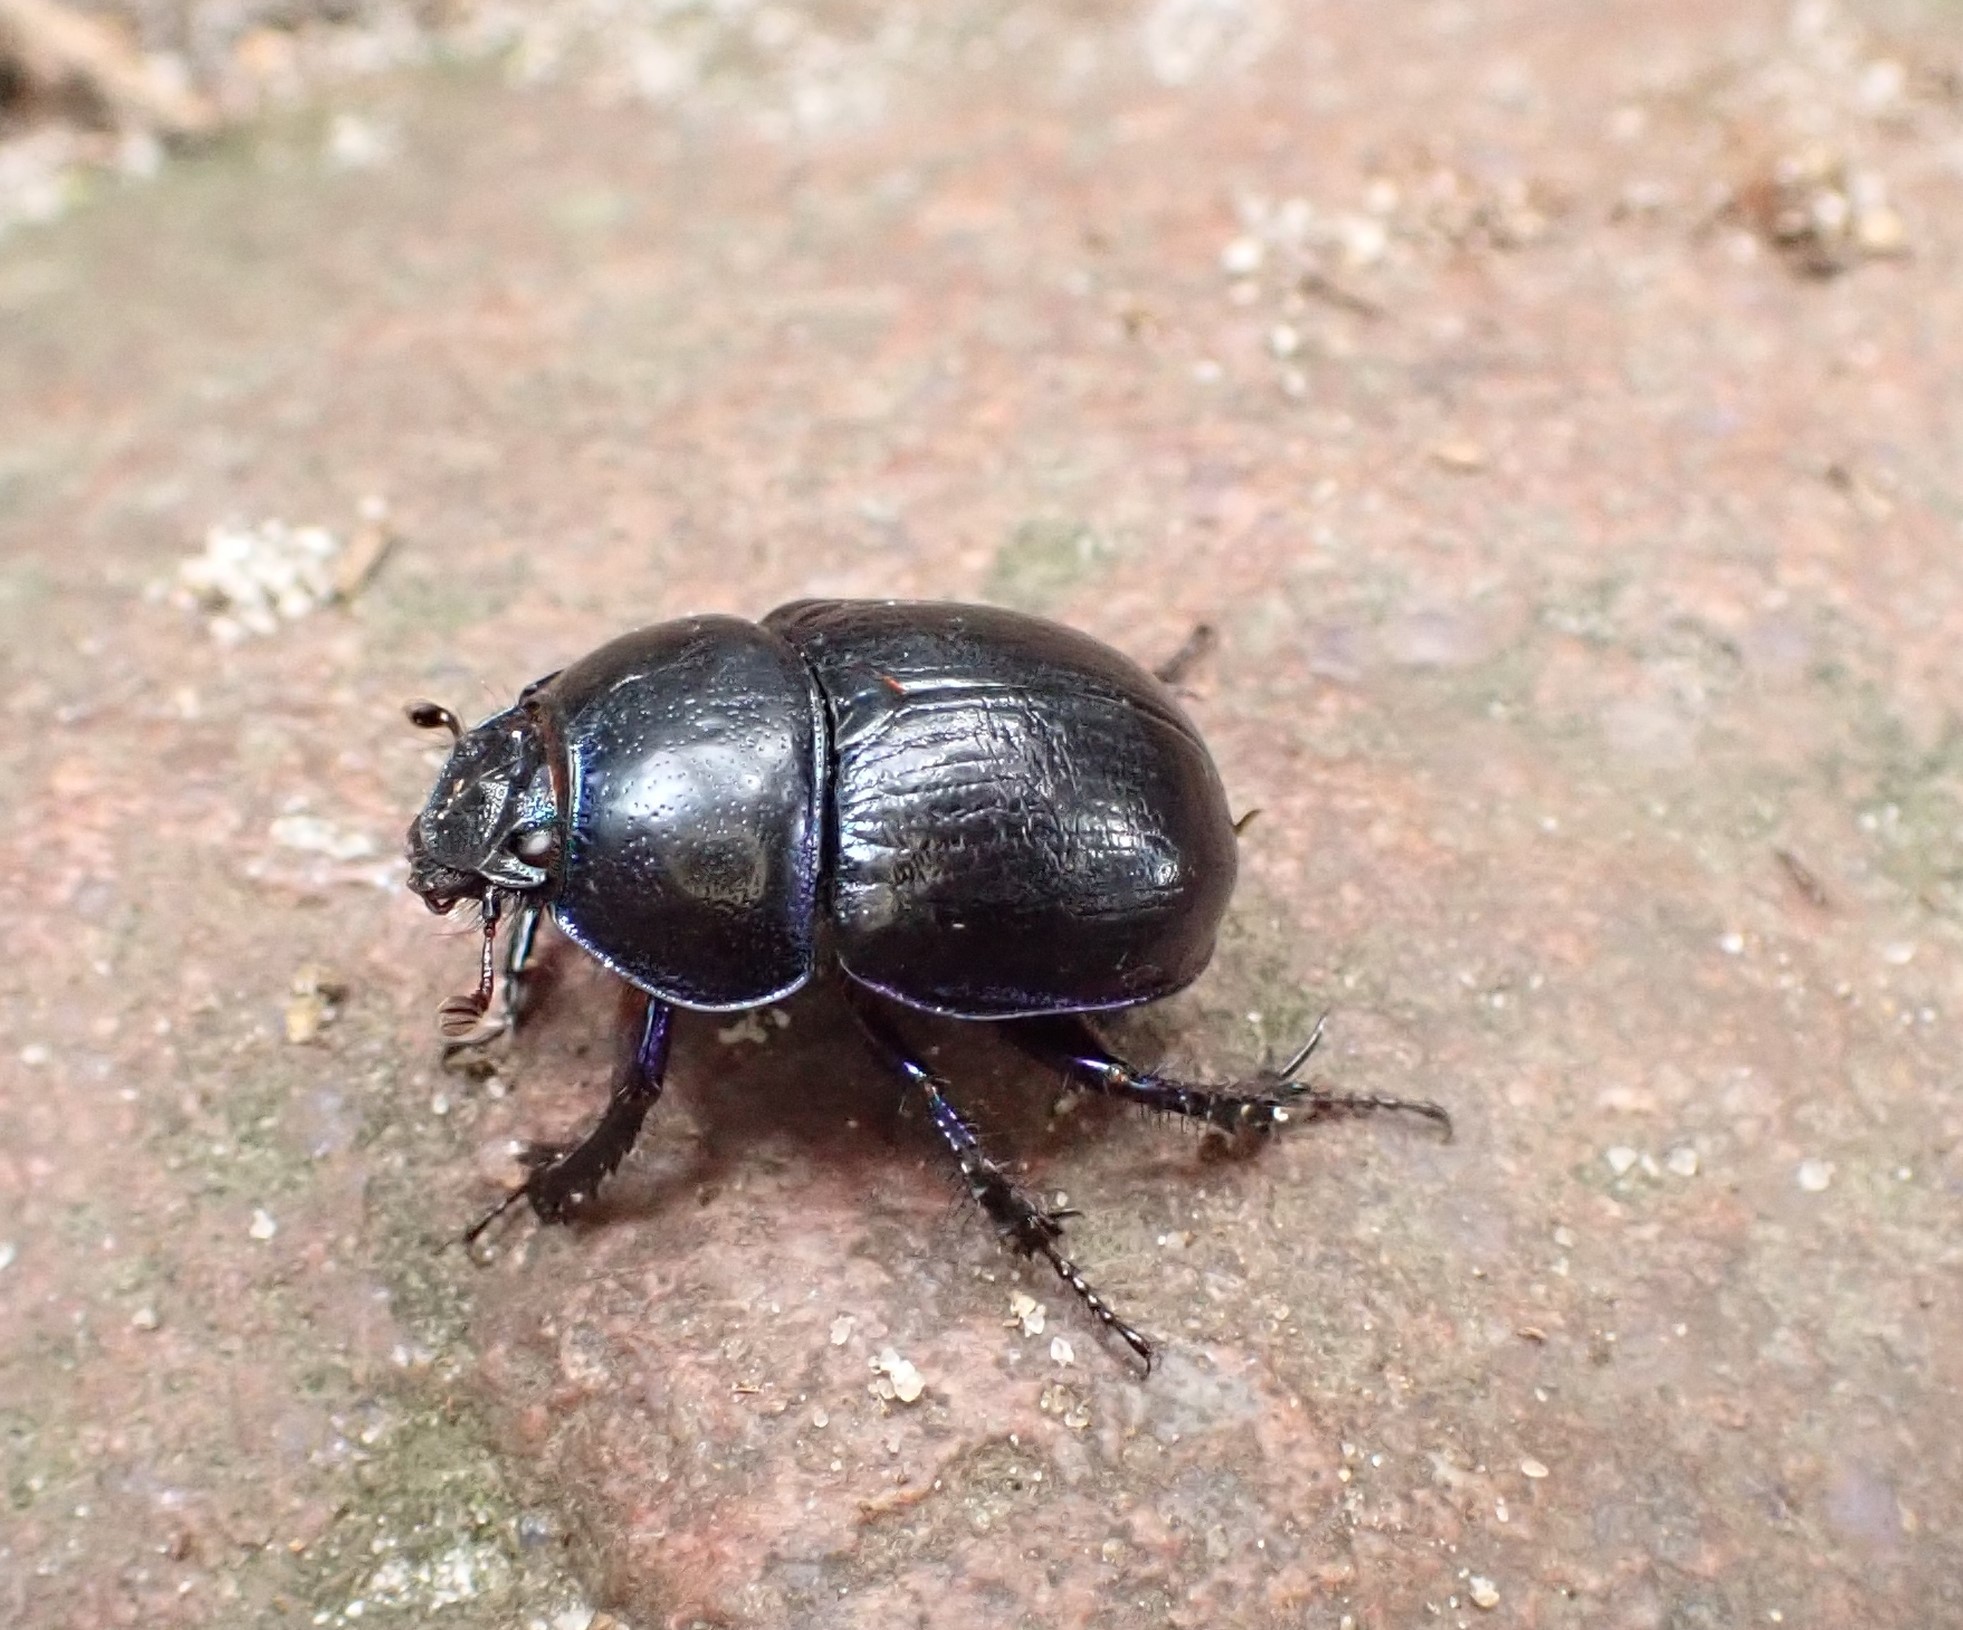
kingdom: Animalia
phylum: Arthropoda
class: Insecta
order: Coleoptera
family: Geotrupidae
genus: Anoplotrupes
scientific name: Anoplotrupes stercorosus
